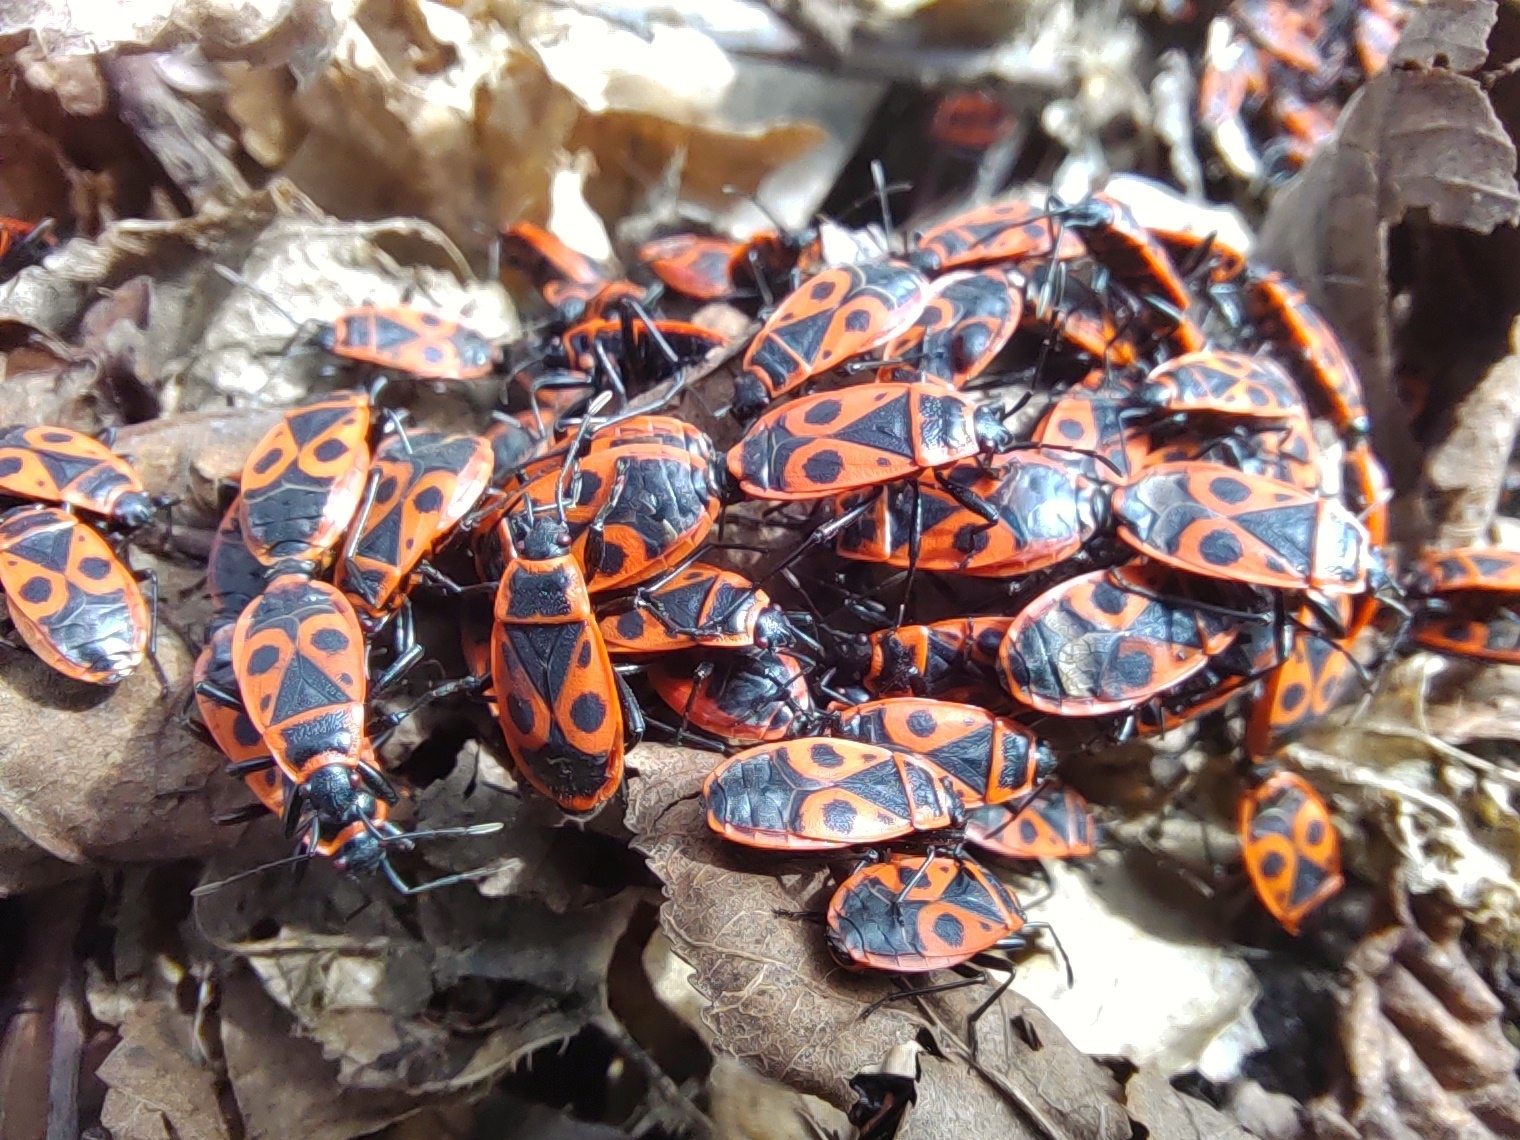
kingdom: Animalia
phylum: Arthropoda
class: Insecta
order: Hemiptera
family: Pyrrhocoridae
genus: Pyrrhocoris
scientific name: Pyrrhocoris apterus
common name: Firebug
